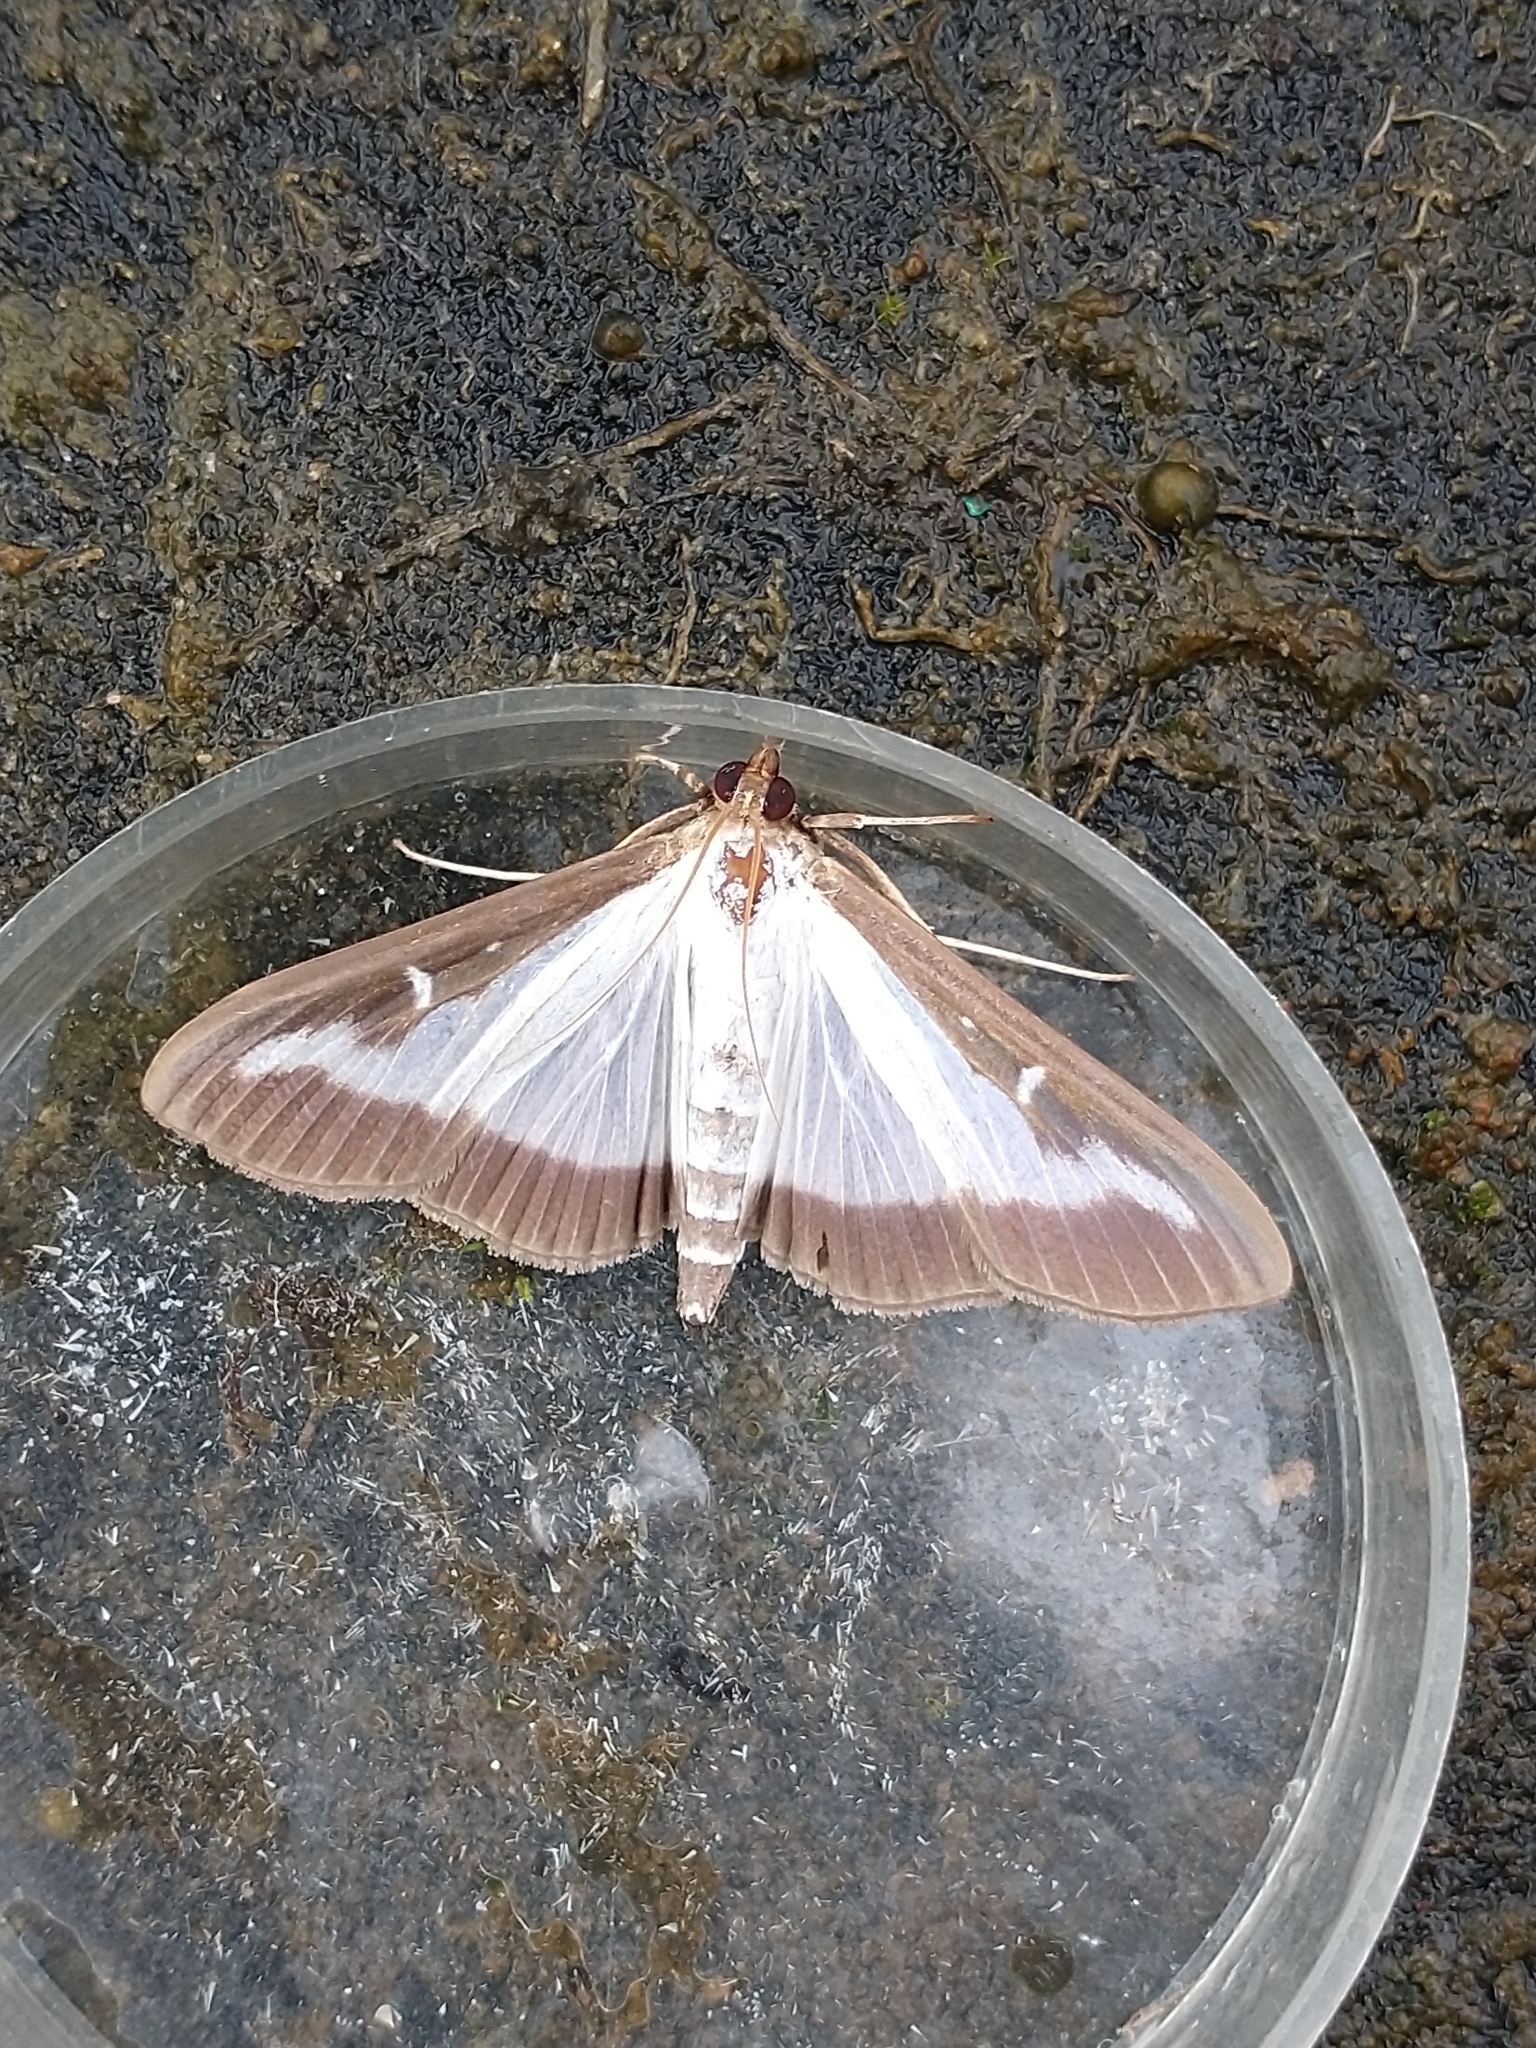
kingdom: Animalia
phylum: Arthropoda
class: Insecta
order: Lepidoptera
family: Crambidae
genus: Cydalima
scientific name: Cydalima perspectalis
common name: Box tree moth
